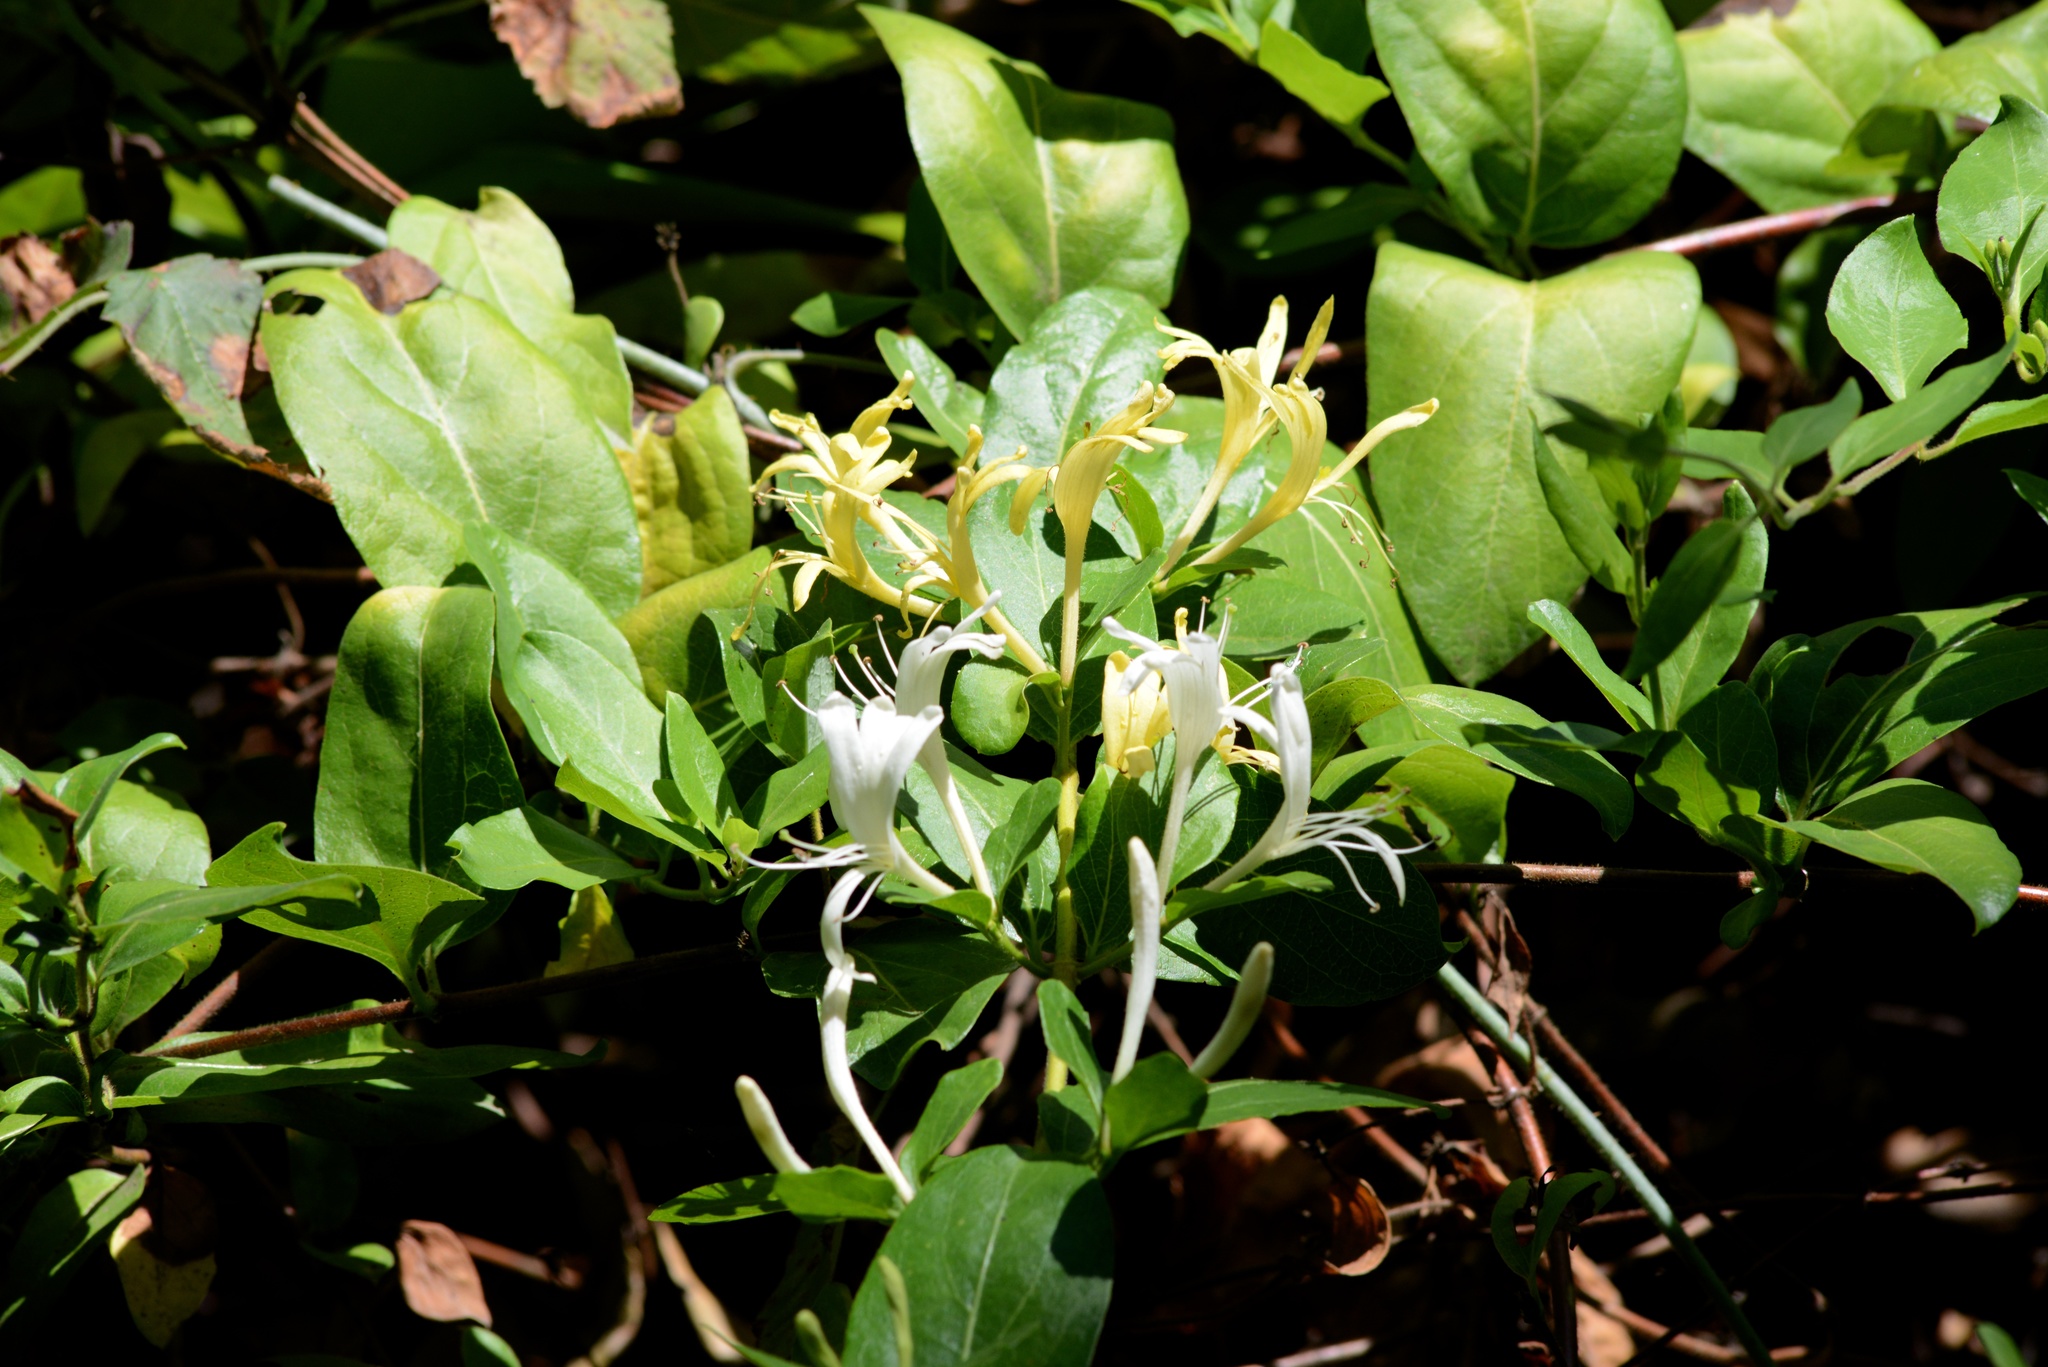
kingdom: Plantae
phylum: Tracheophyta
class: Magnoliopsida
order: Dipsacales
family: Caprifoliaceae
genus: Lonicera
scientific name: Lonicera japonica
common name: Japanese honeysuckle
